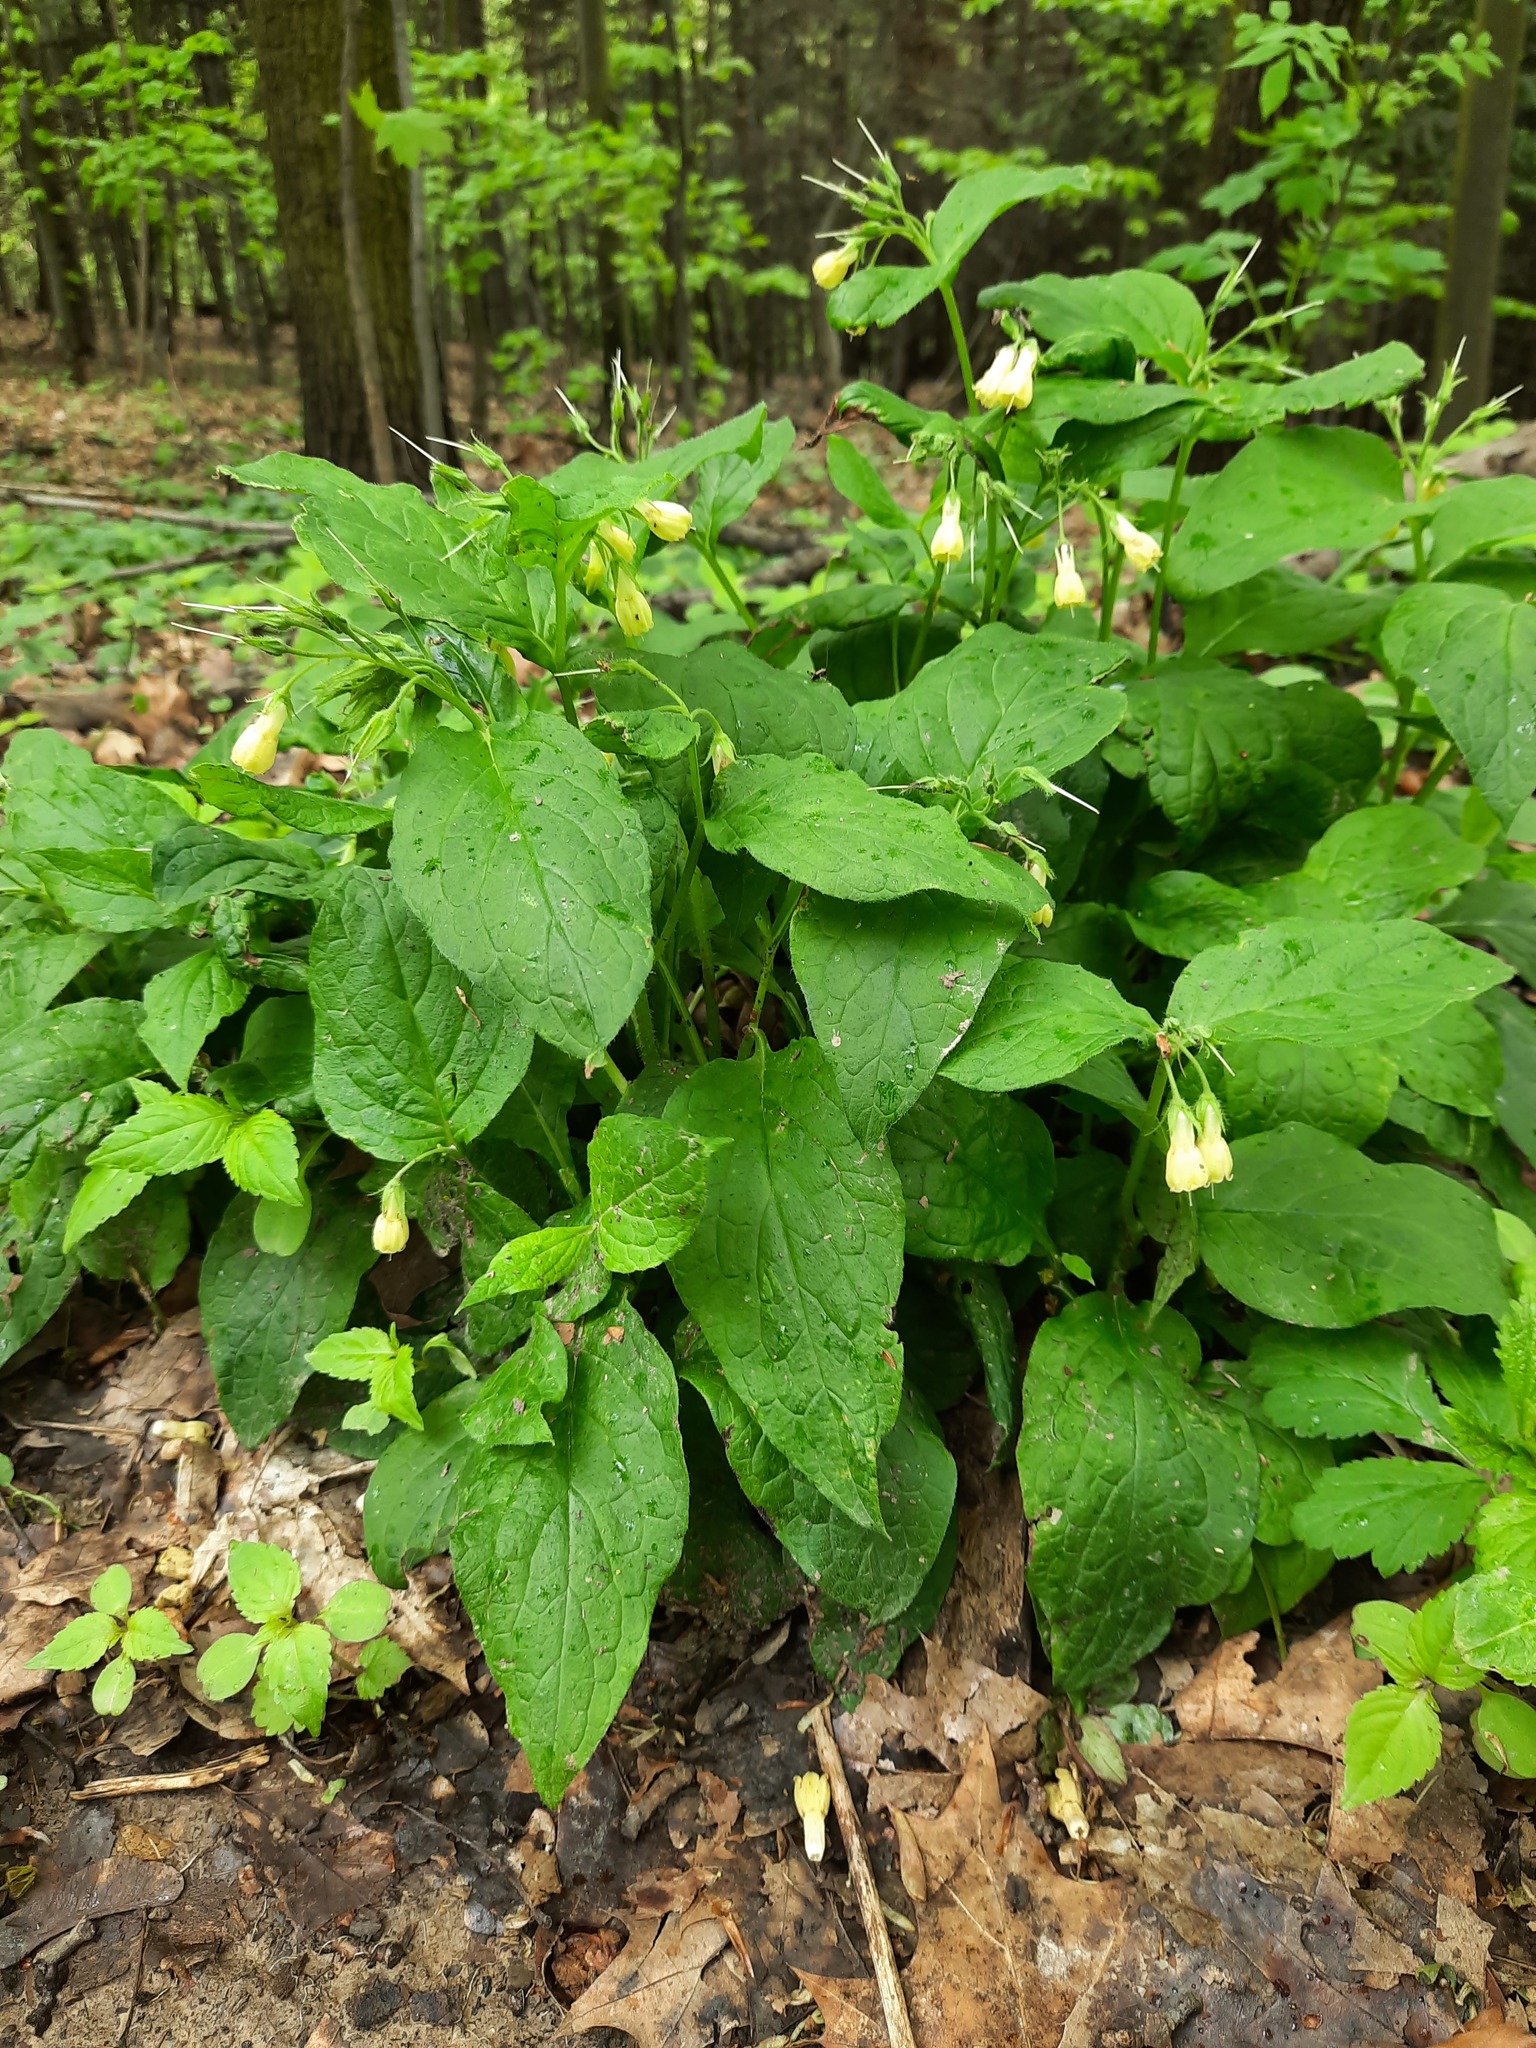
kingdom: Plantae
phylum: Tracheophyta
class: Magnoliopsida
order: Boraginales
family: Boraginaceae
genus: Symphytum
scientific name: Symphytum tuberosum
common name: Tuberous comfrey
